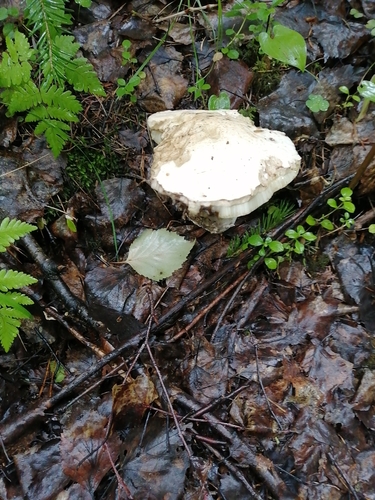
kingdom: Fungi
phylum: Basidiomycota
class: Agaricomycetes
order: Boletales
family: Boletaceae
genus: Leccinum
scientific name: Leccinum
